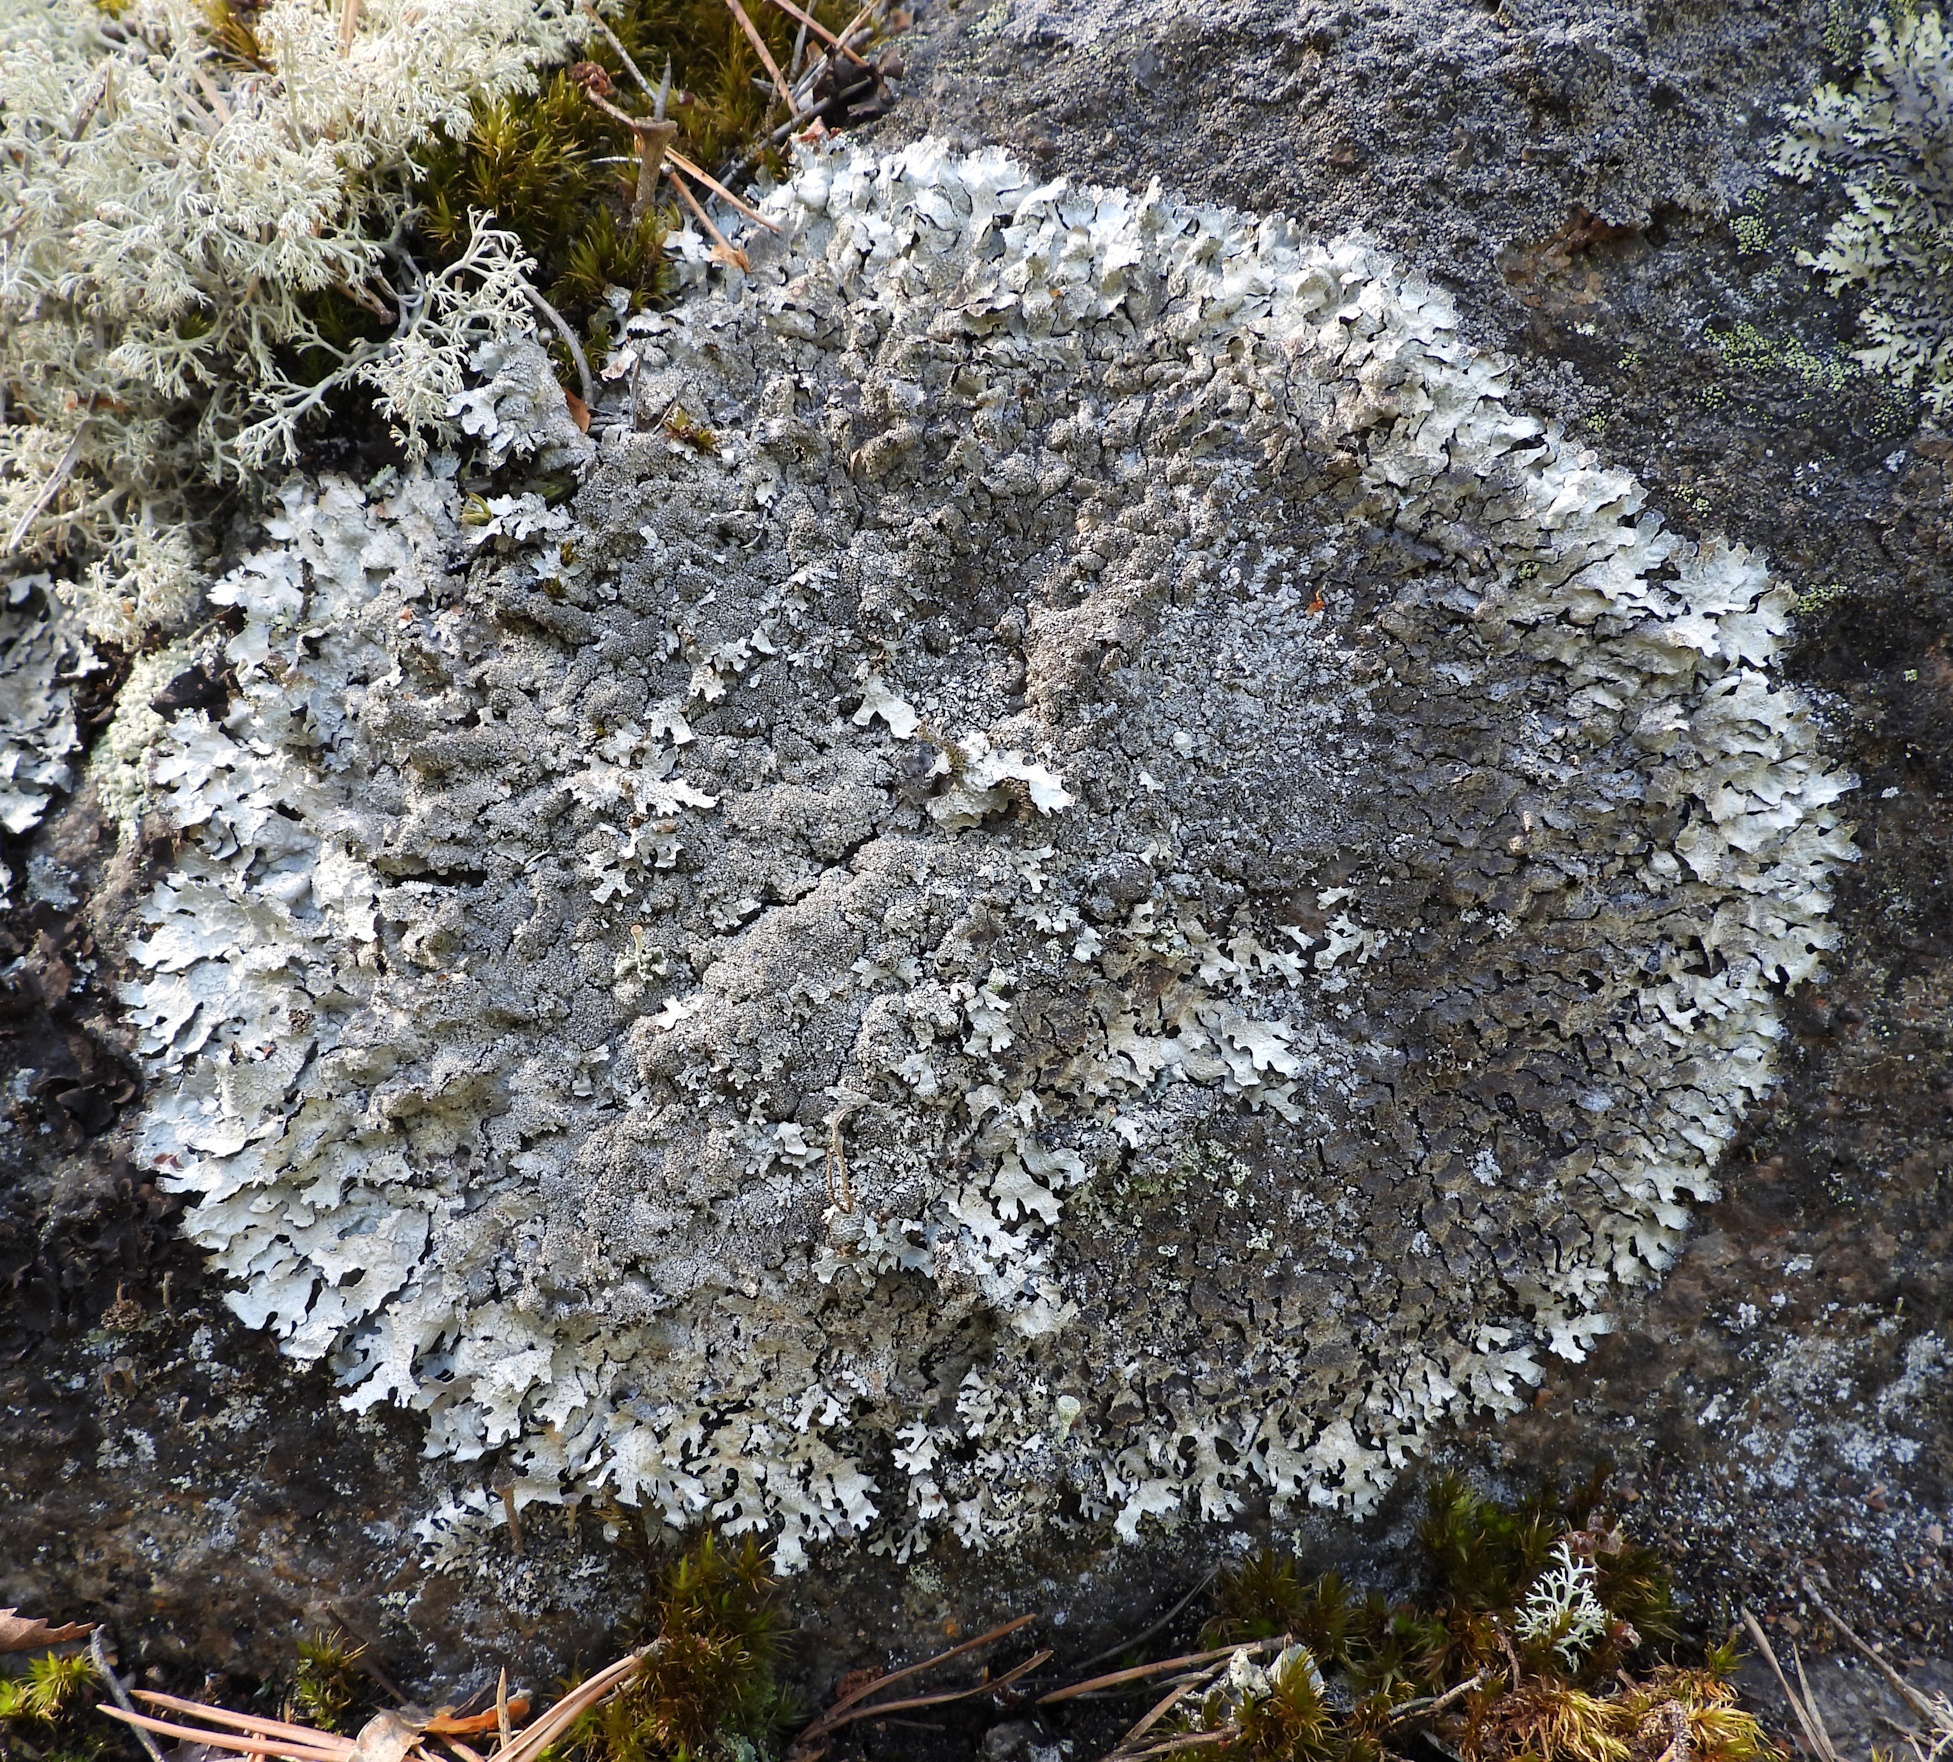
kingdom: Fungi
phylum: Ascomycota
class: Lecanoromycetes
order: Lecanorales
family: Parmeliaceae
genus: Parmelia
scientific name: Parmelia saxatilis
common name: Salted shield lichen
